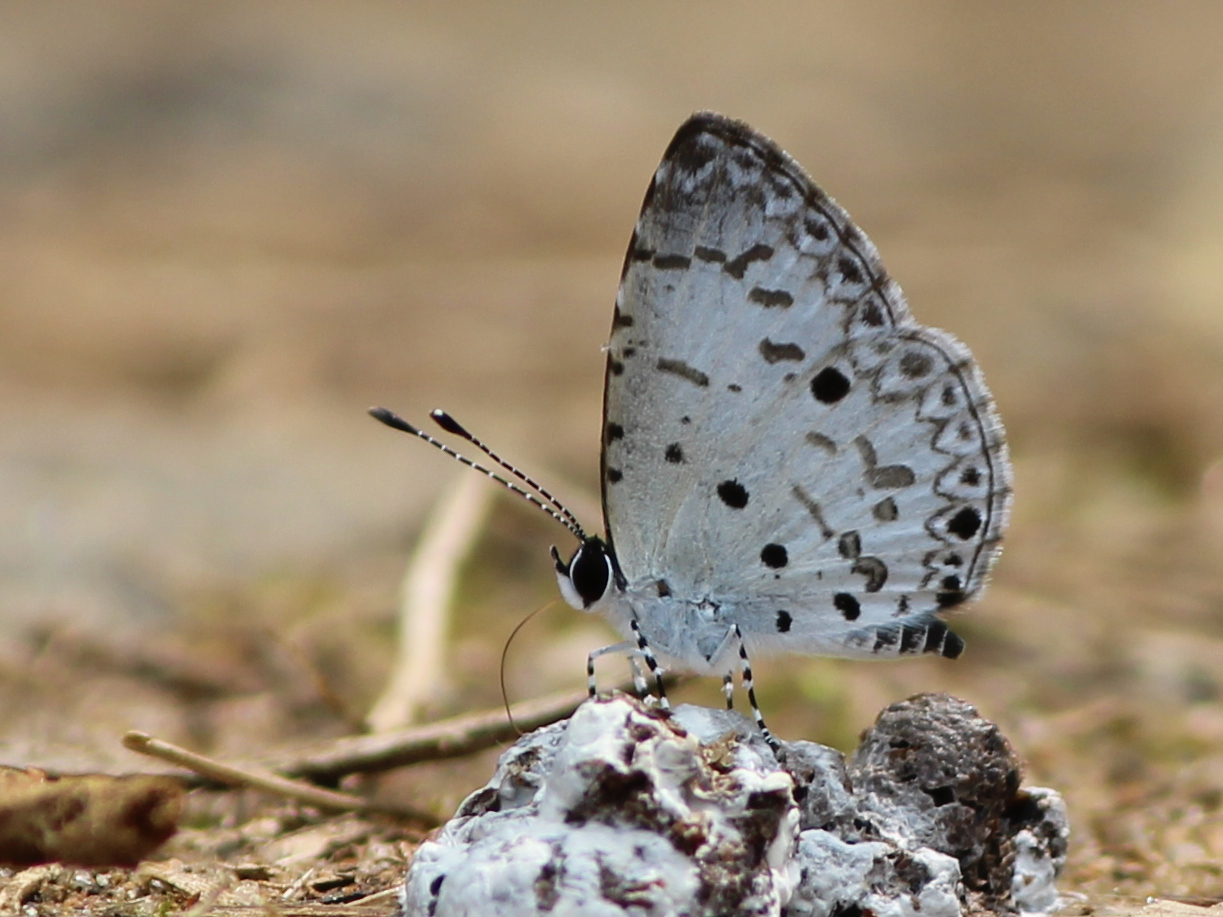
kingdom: Animalia
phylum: Arthropoda
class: Insecta
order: Lepidoptera
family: Lycaenidae
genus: Megisba
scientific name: Megisba malaya
